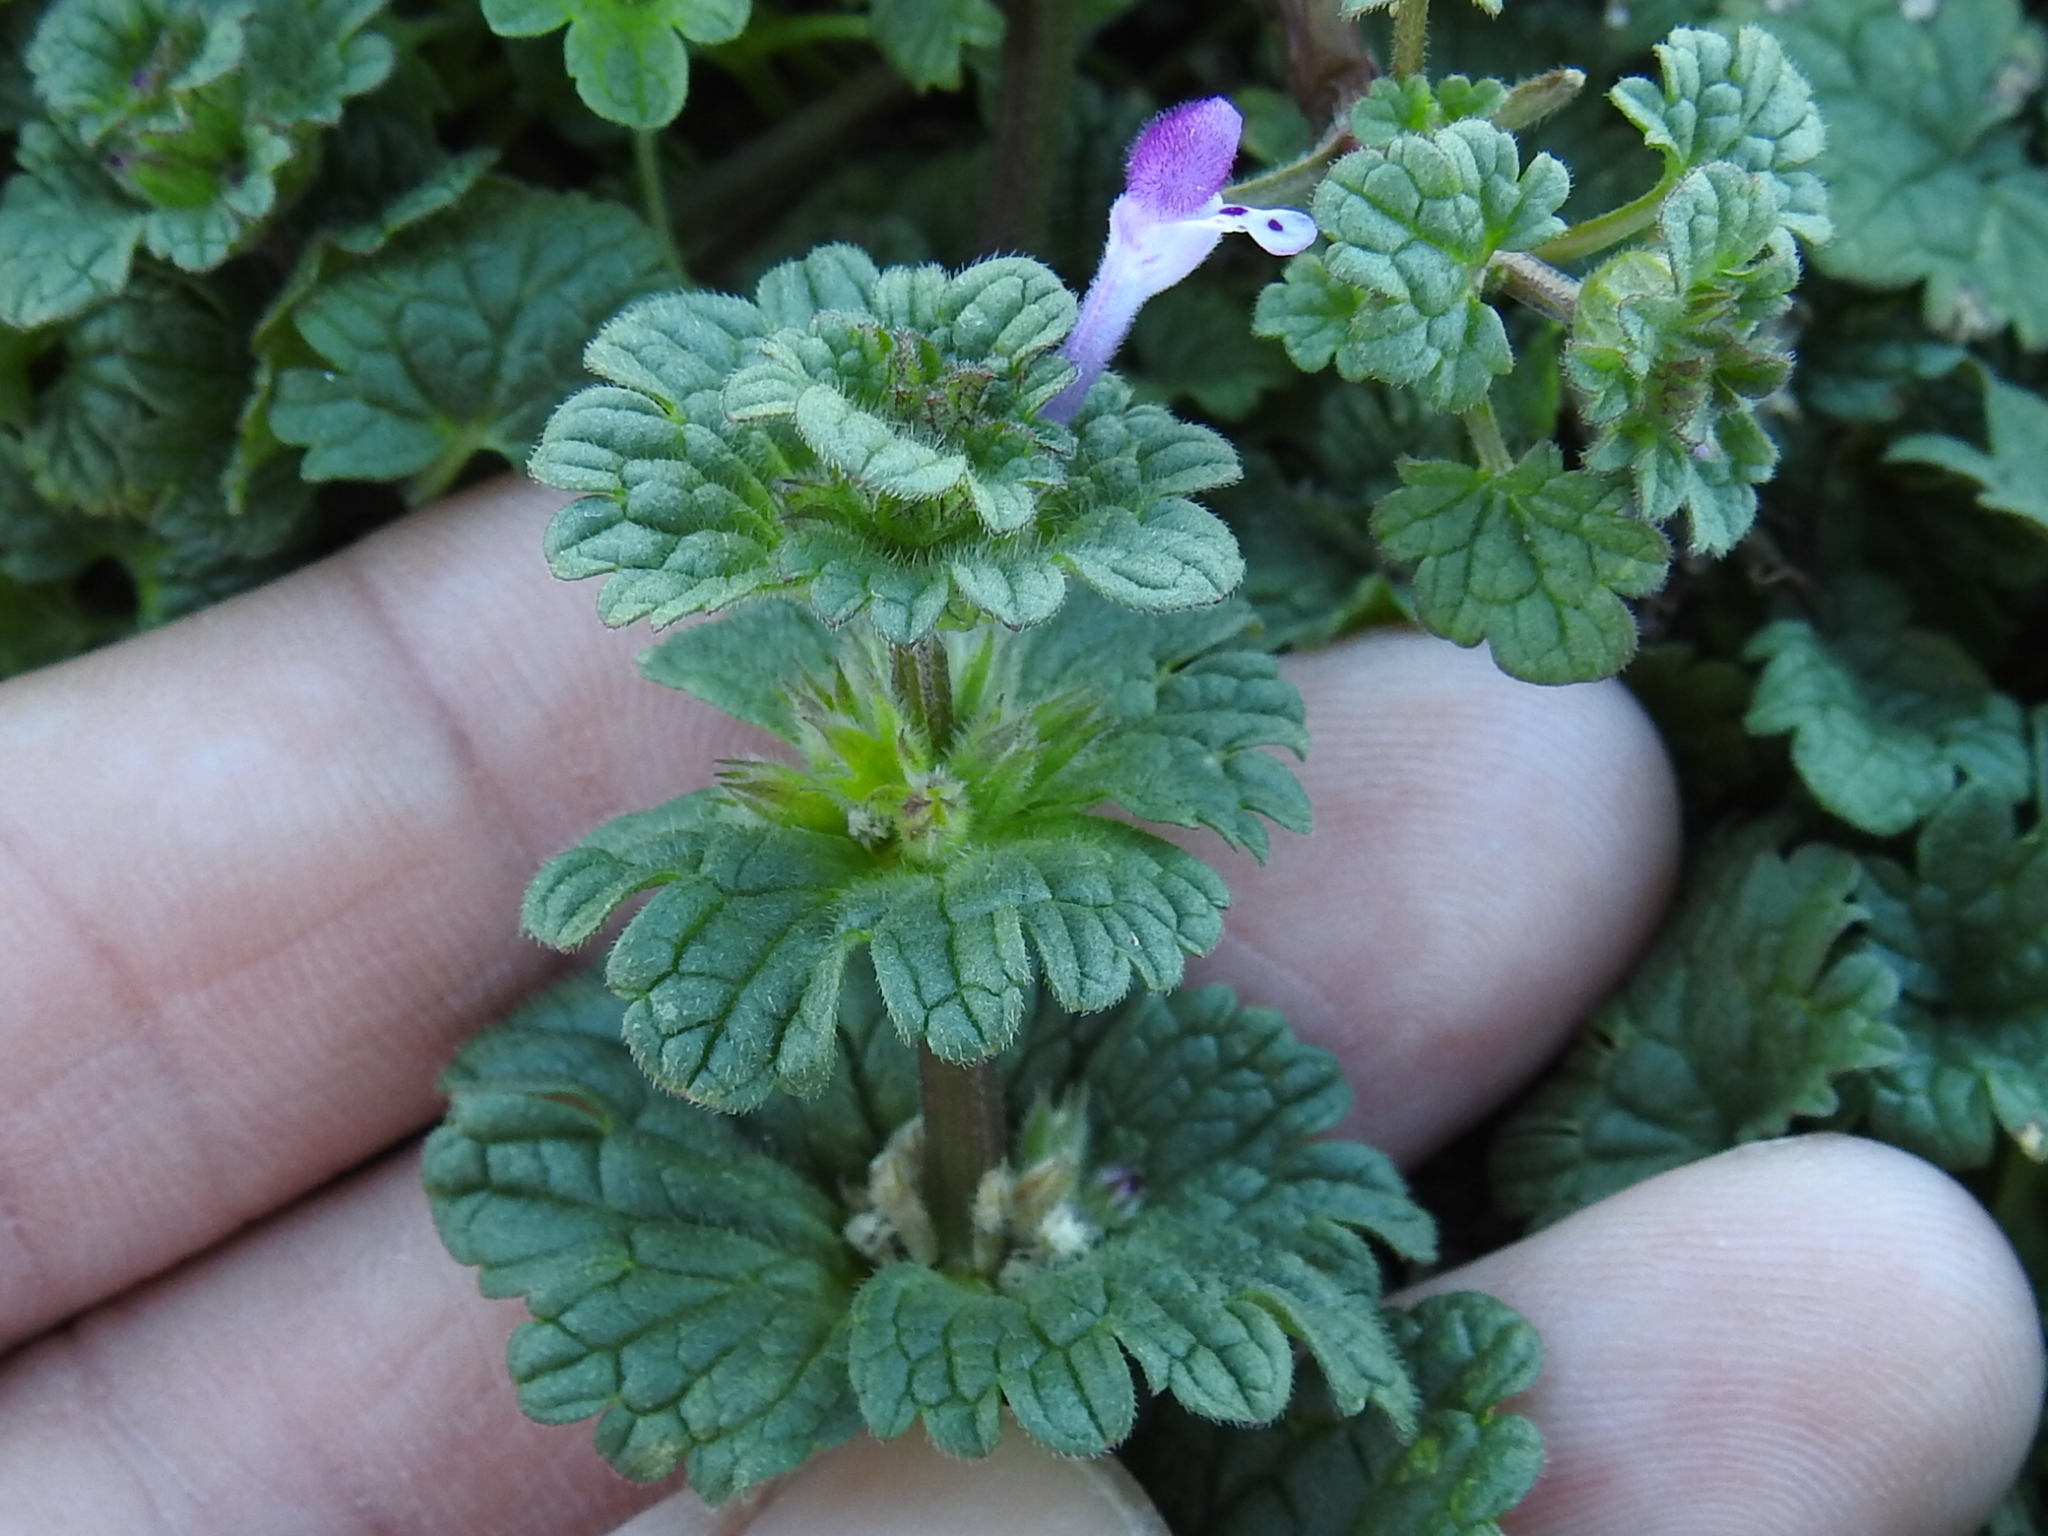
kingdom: Plantae
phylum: Tracheophyta
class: Magnoliopsida
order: Lamiales
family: Lamiaceae
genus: Lamium
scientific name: Lamium amplexicaule
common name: Henbit dead-nettle
